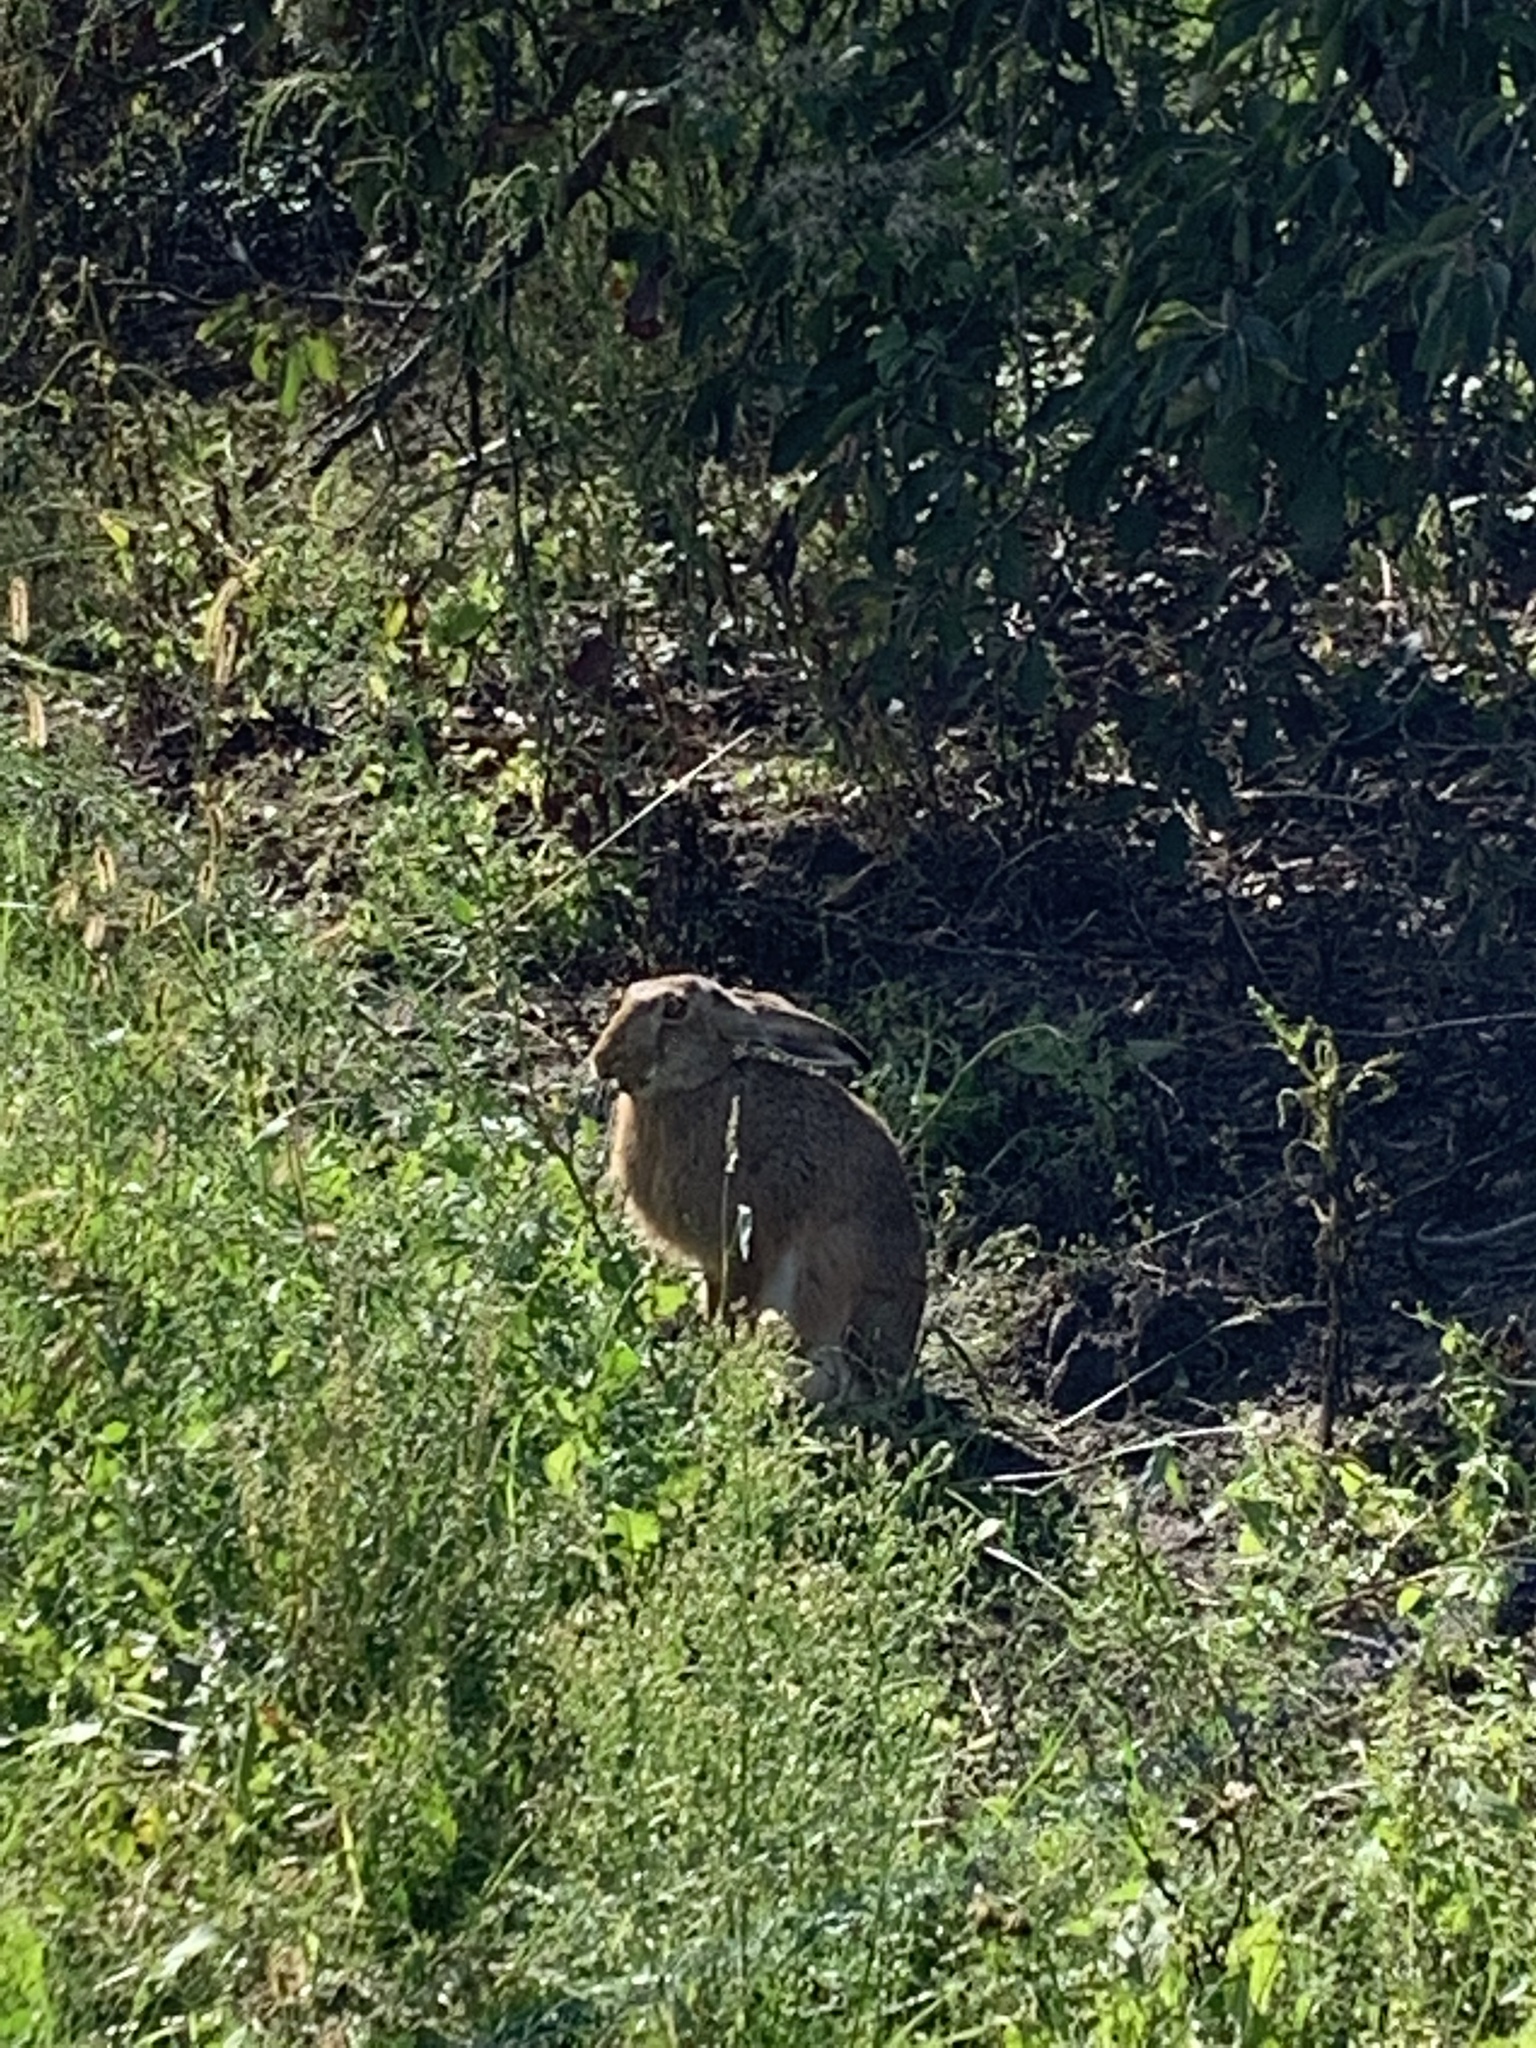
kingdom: Animalia
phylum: Chordata
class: Mammalia
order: Lagomorpha
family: Leporidae
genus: Lepus
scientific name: Lepus europaeus
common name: European hare
